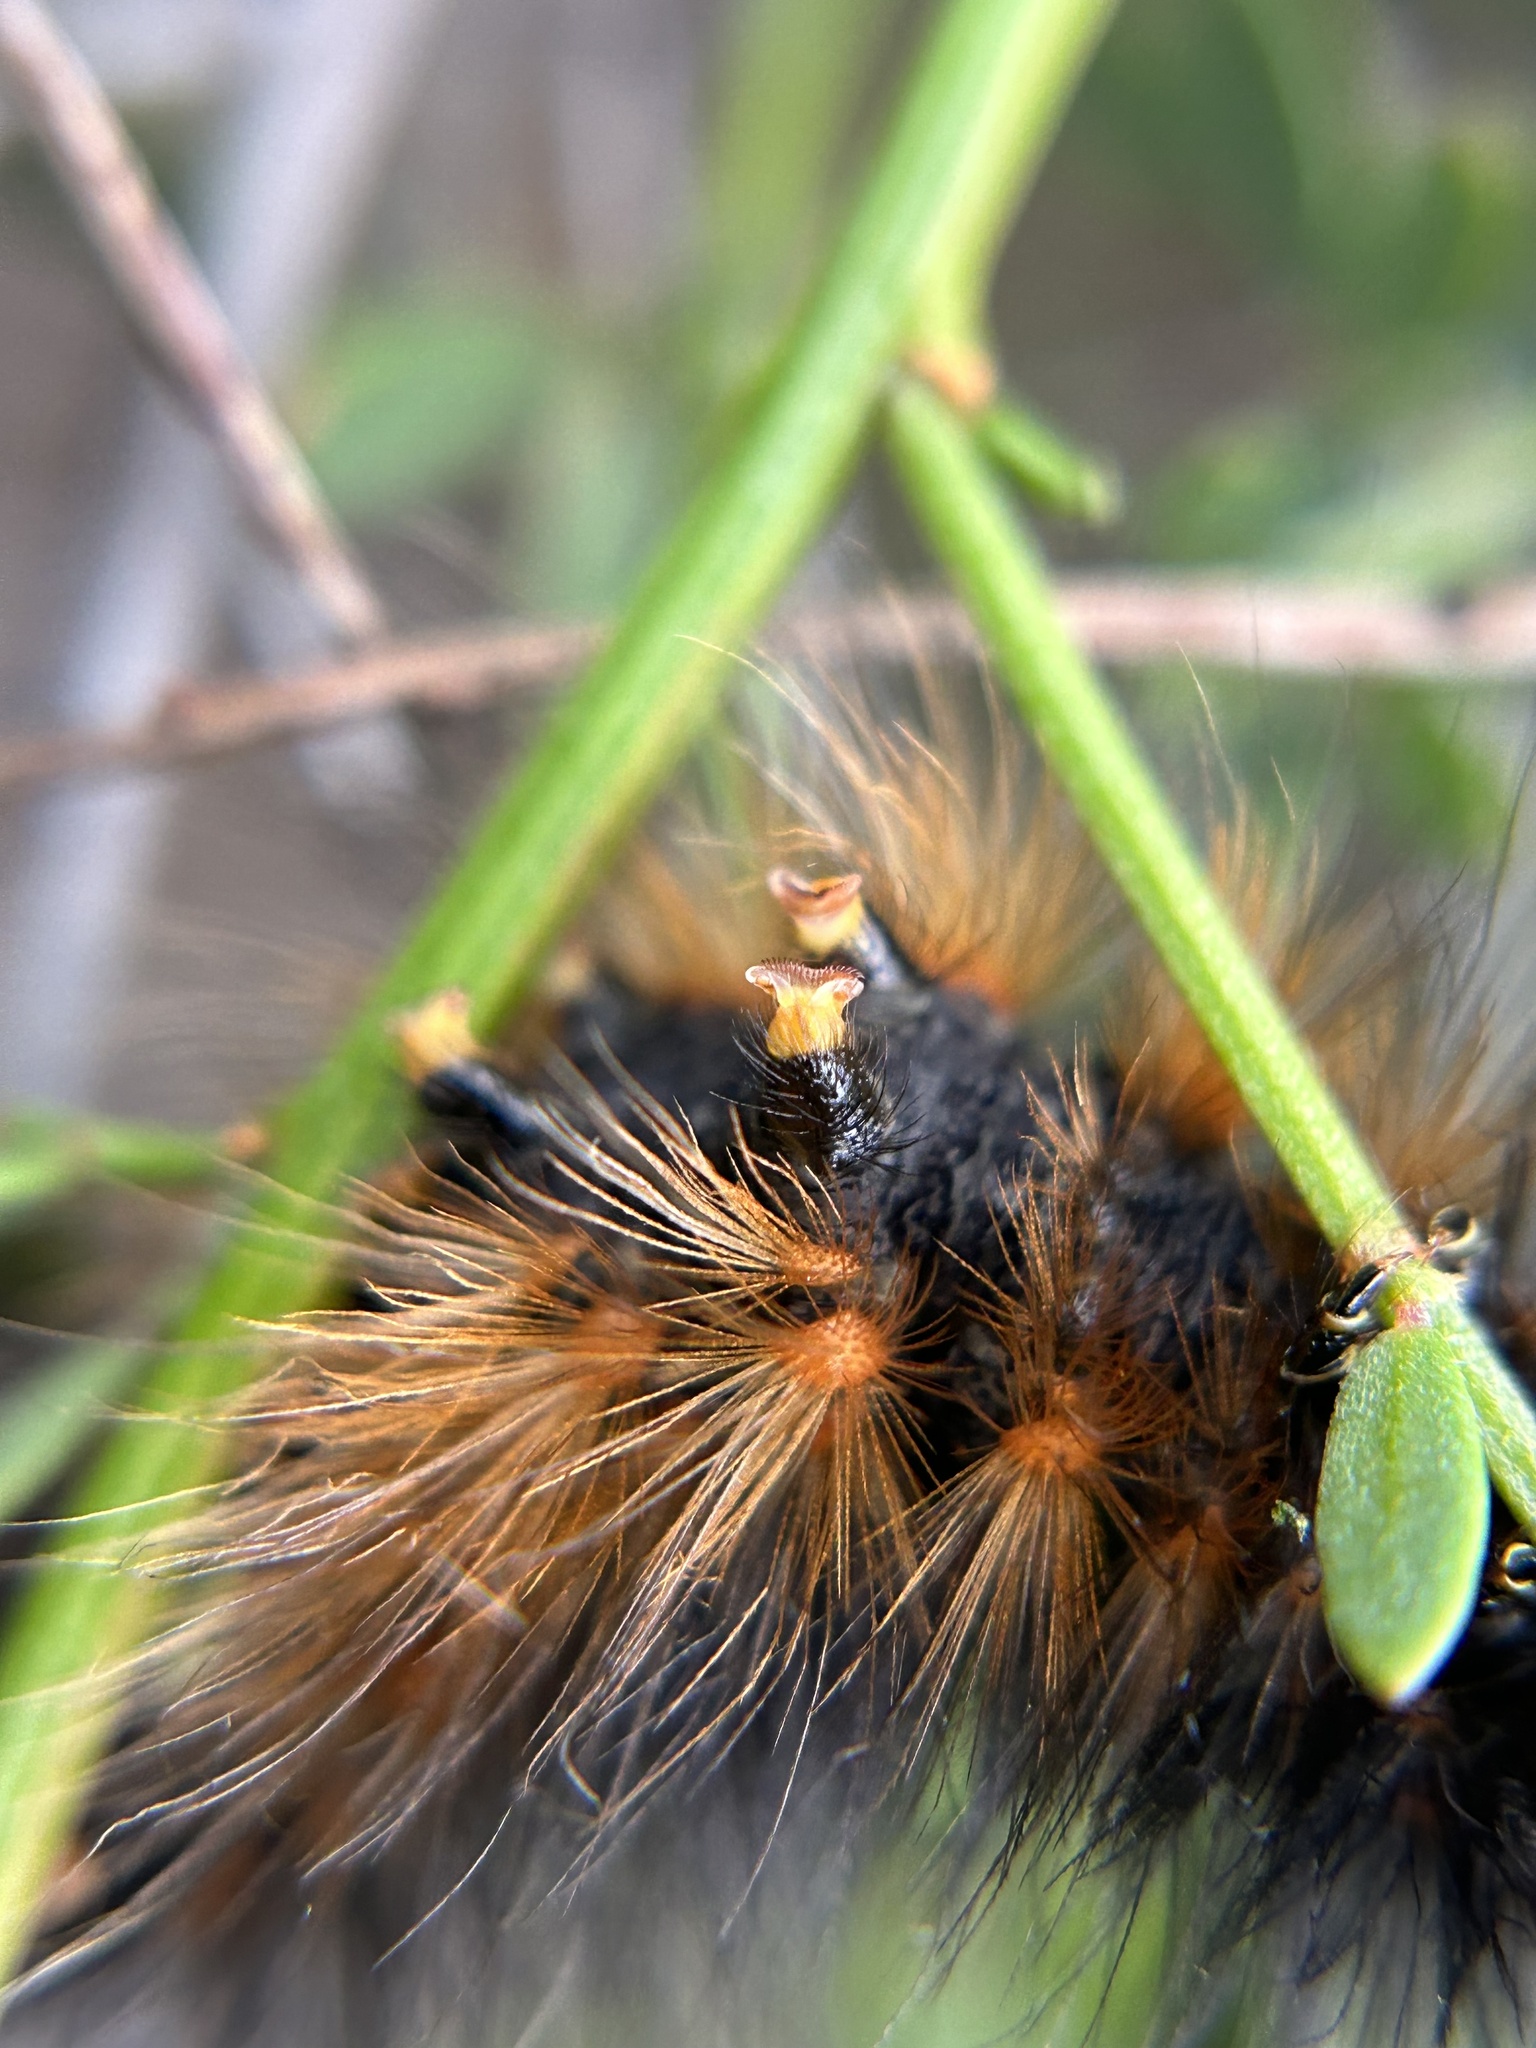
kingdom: Animalia
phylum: Arthropoda
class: Insecta
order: Lepidoptera
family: Erebidae
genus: Estigmene
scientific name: Estigmene acrea
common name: Salt marsh moth
